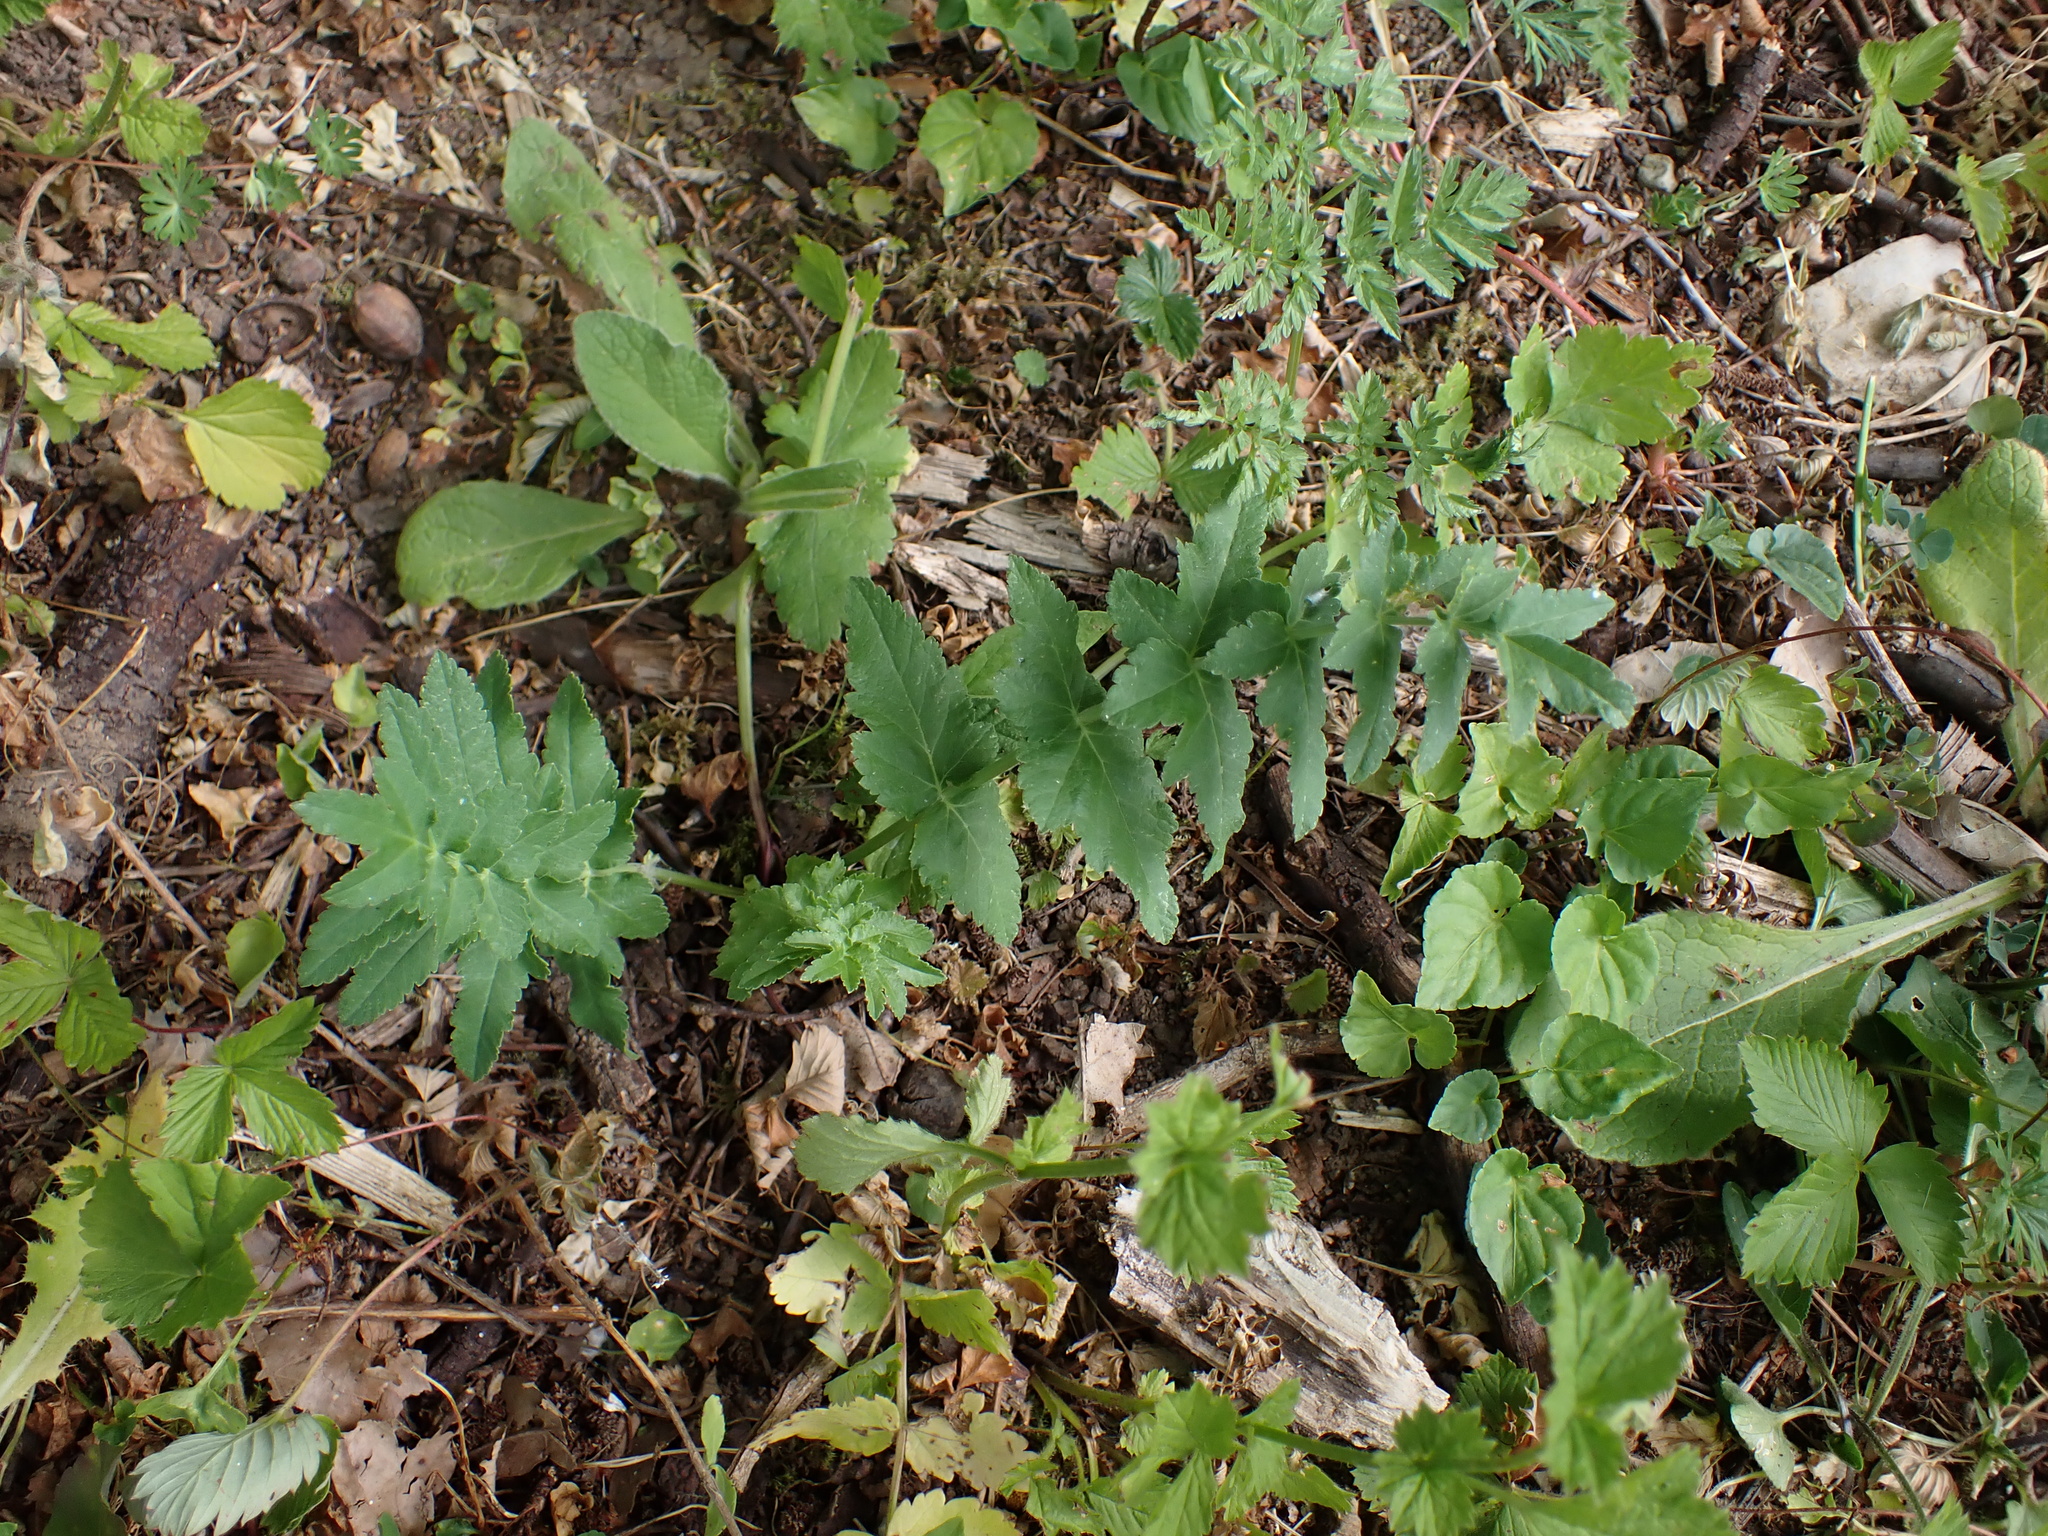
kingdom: Plantae
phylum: Tracheophyta
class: Magnoliopsida
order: Apiales
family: Apiaceae
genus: Pastinaca
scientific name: Pastinaca sativa
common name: Wild parsnip
